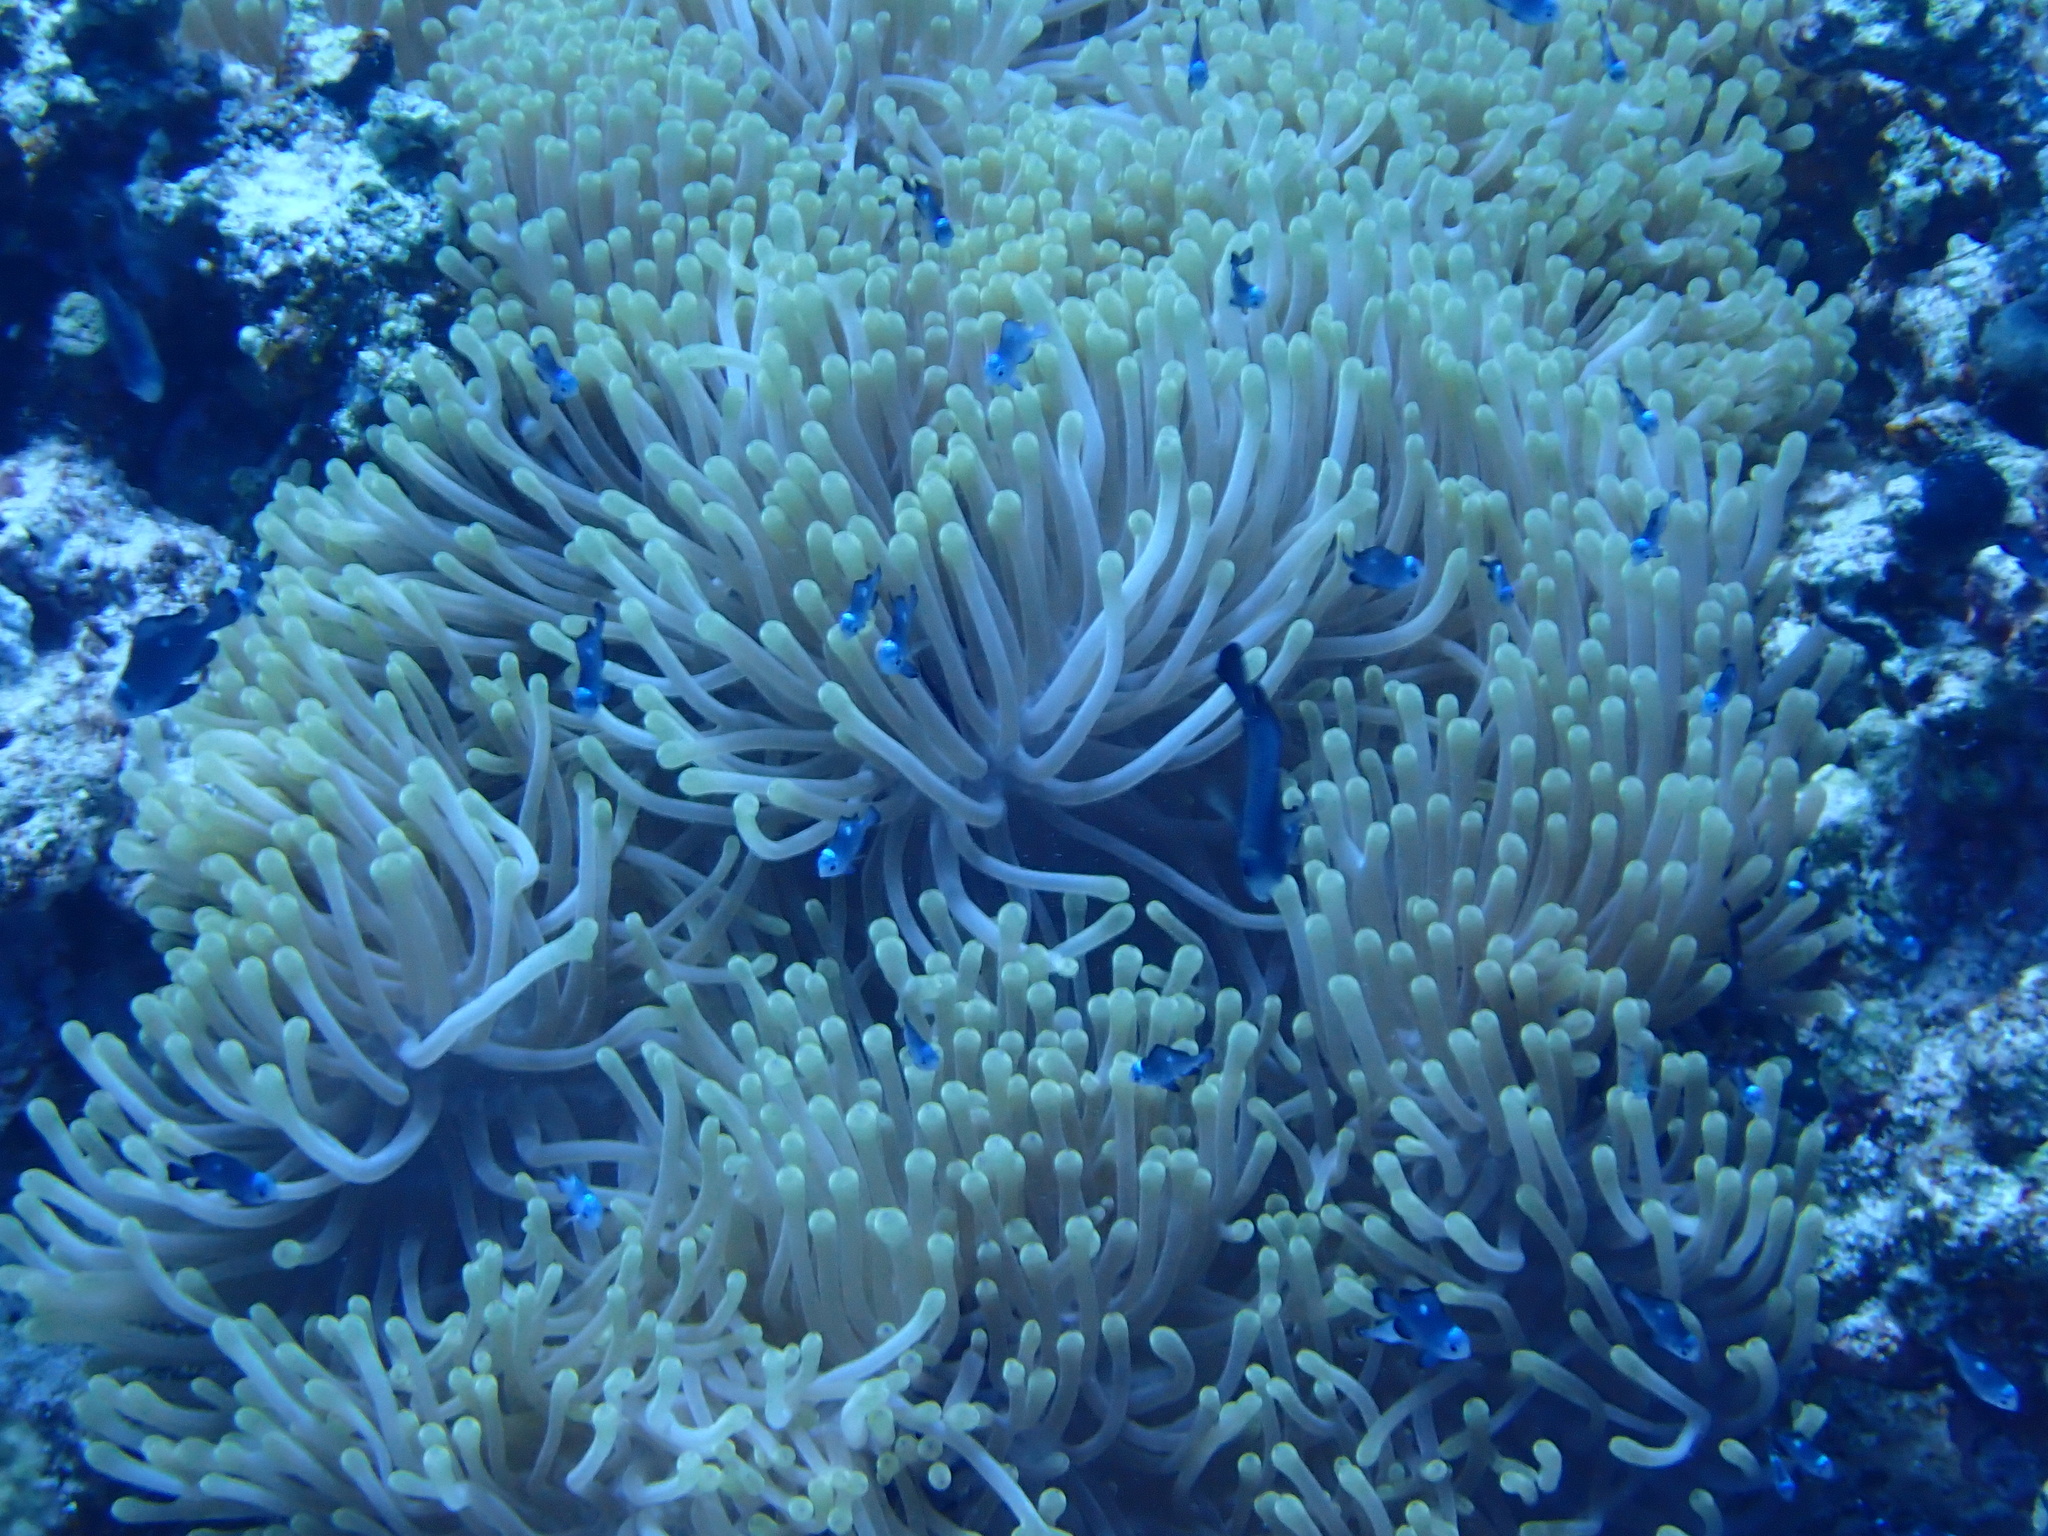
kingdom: Animalia
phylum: Cnidaria
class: Anthozoa
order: Actiniaria
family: Stichodactylidae
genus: Radianthus
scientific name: Radianthus magnifica
